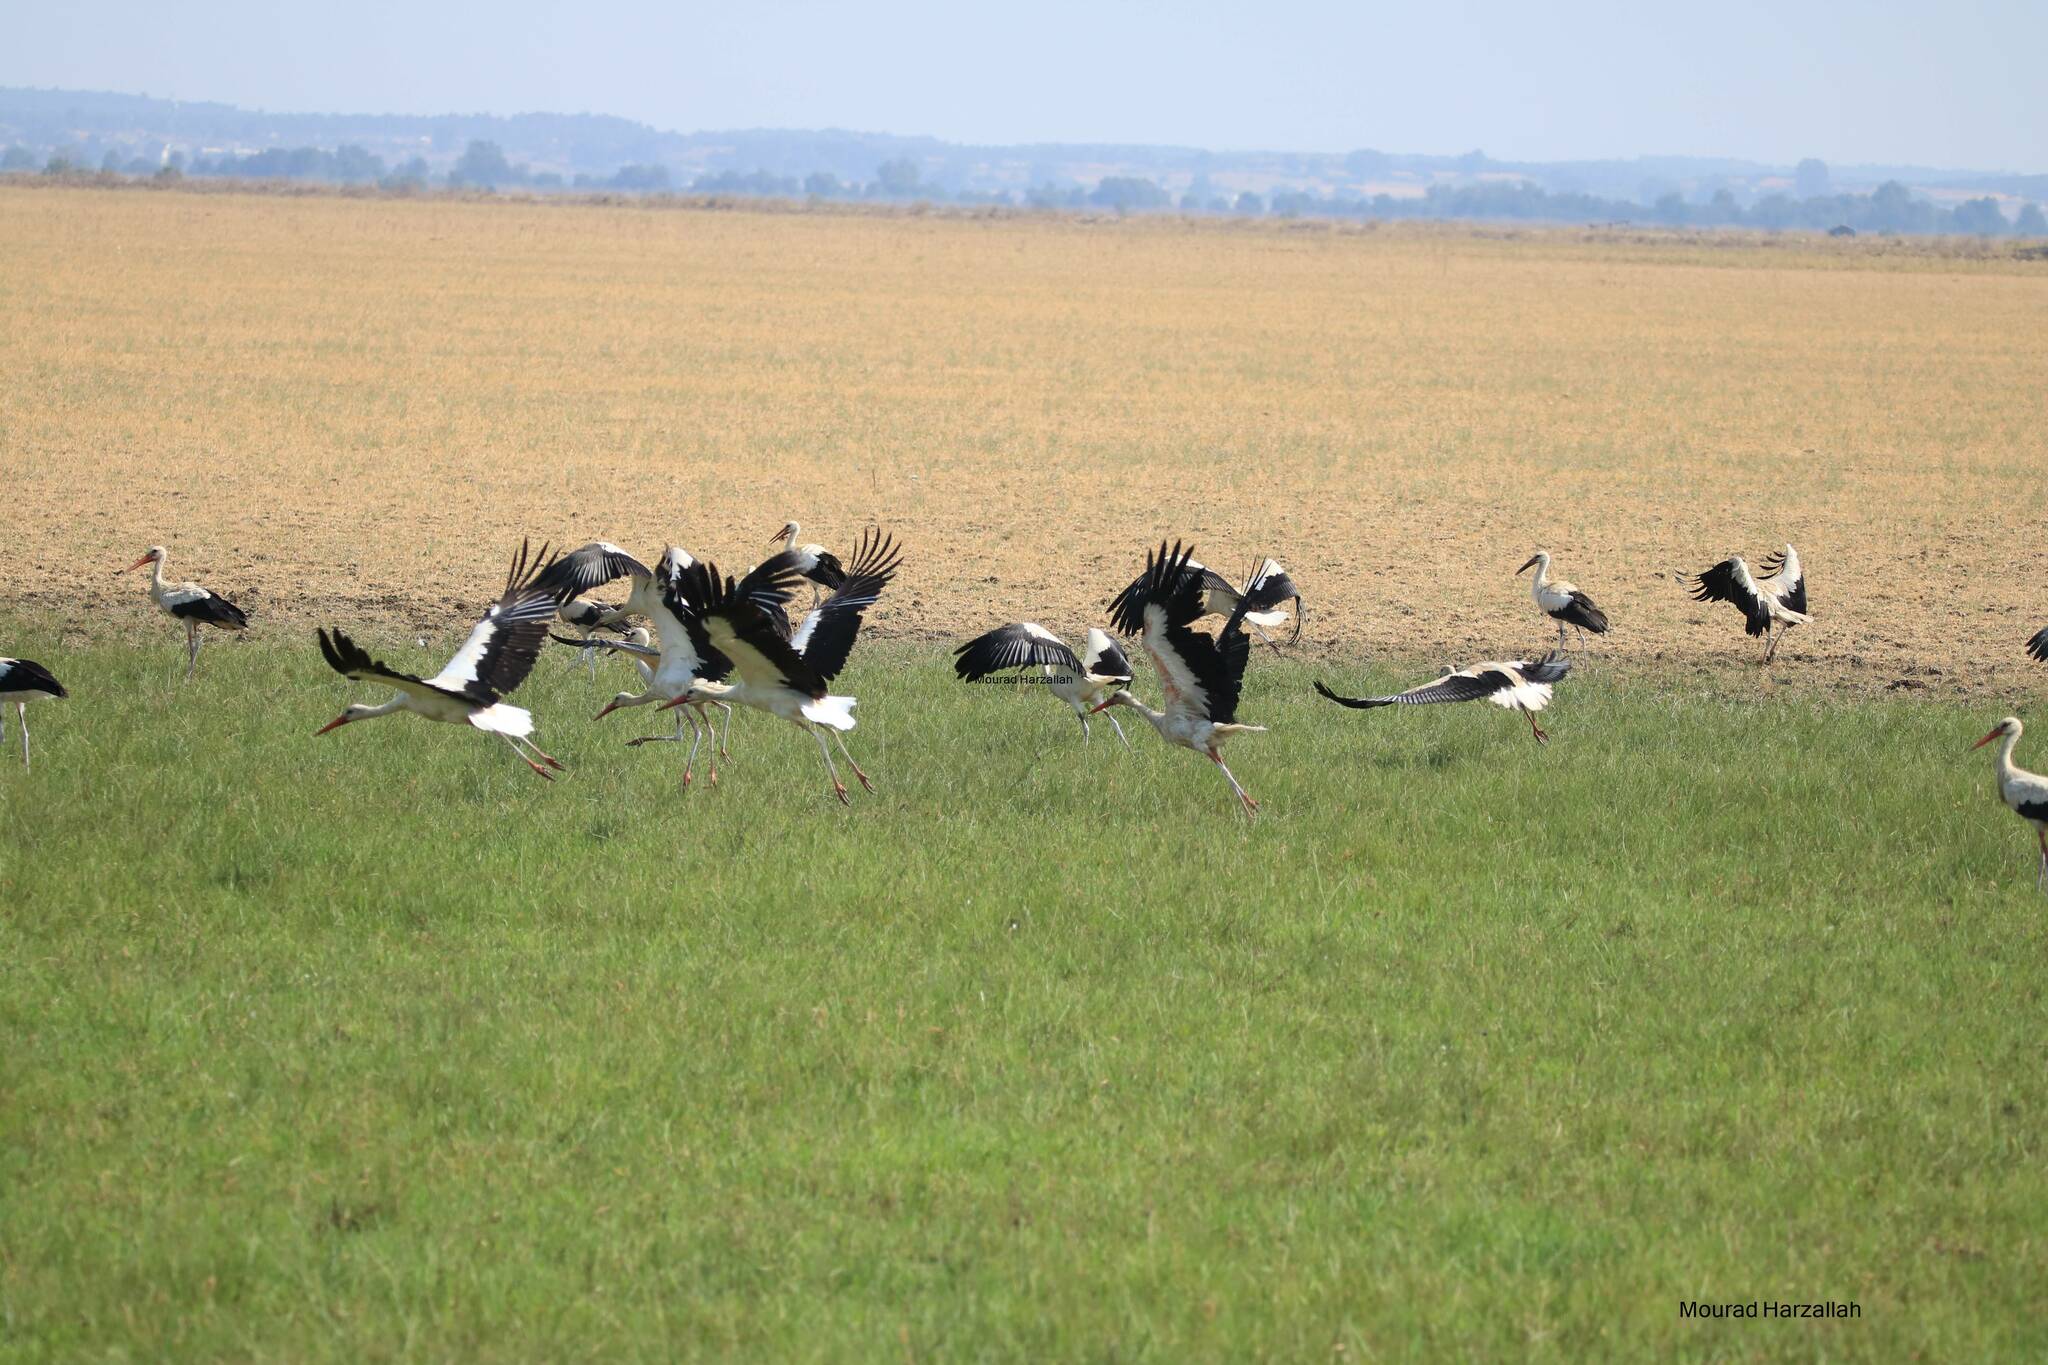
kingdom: Animalia
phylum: Chordata
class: Aves
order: Ciconiiformes
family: Ciconiidae
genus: Ciconia
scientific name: Ciconia ciconia
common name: White stork
